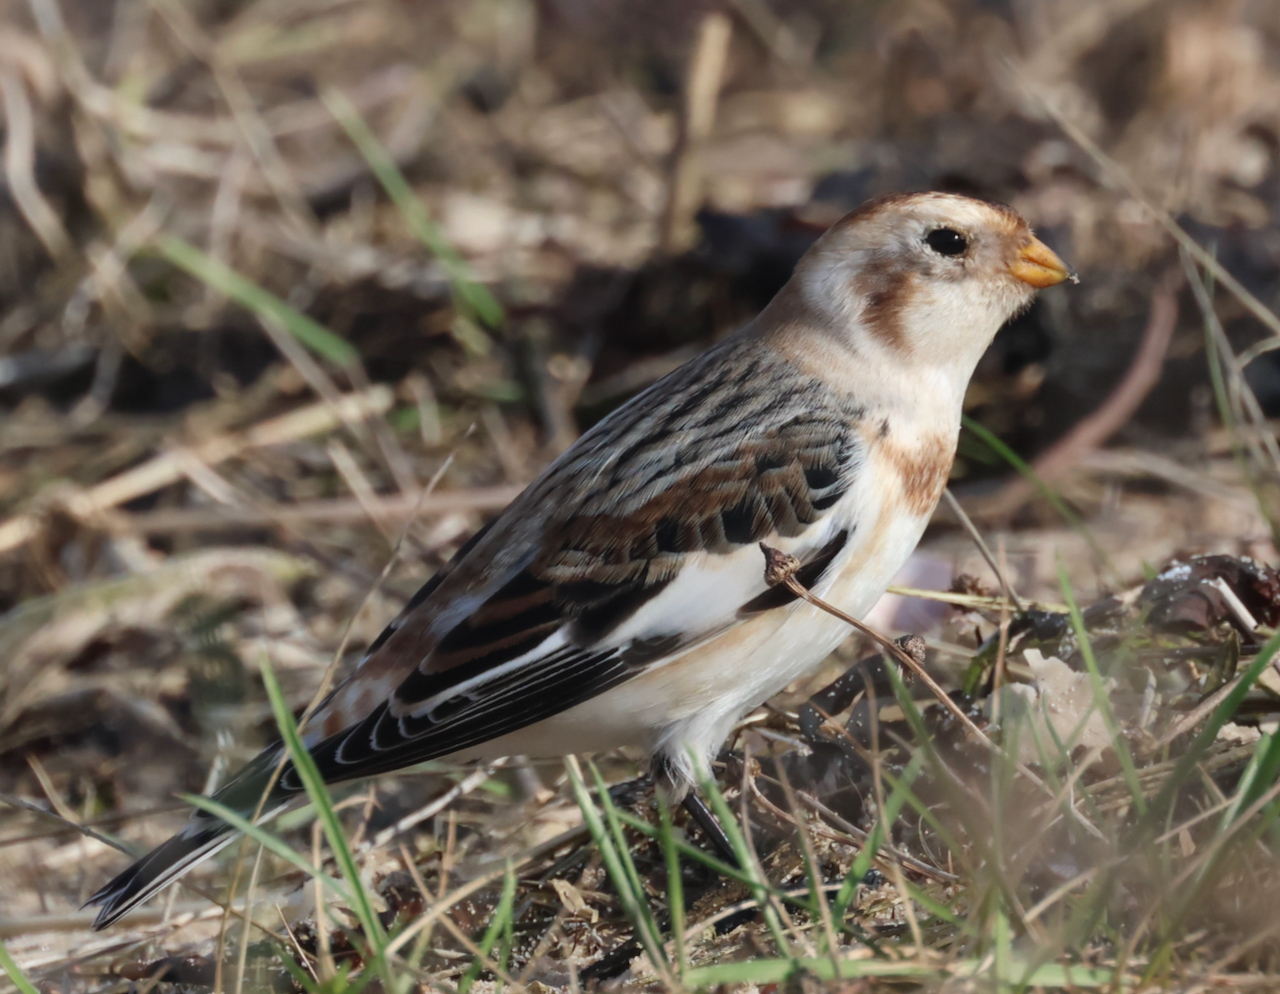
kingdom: Animalia
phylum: Chordata
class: Aves
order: Passeriformes
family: Calcariidae
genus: Plectrophenax
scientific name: Plectrophenax nivalis
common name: Snow bunting
